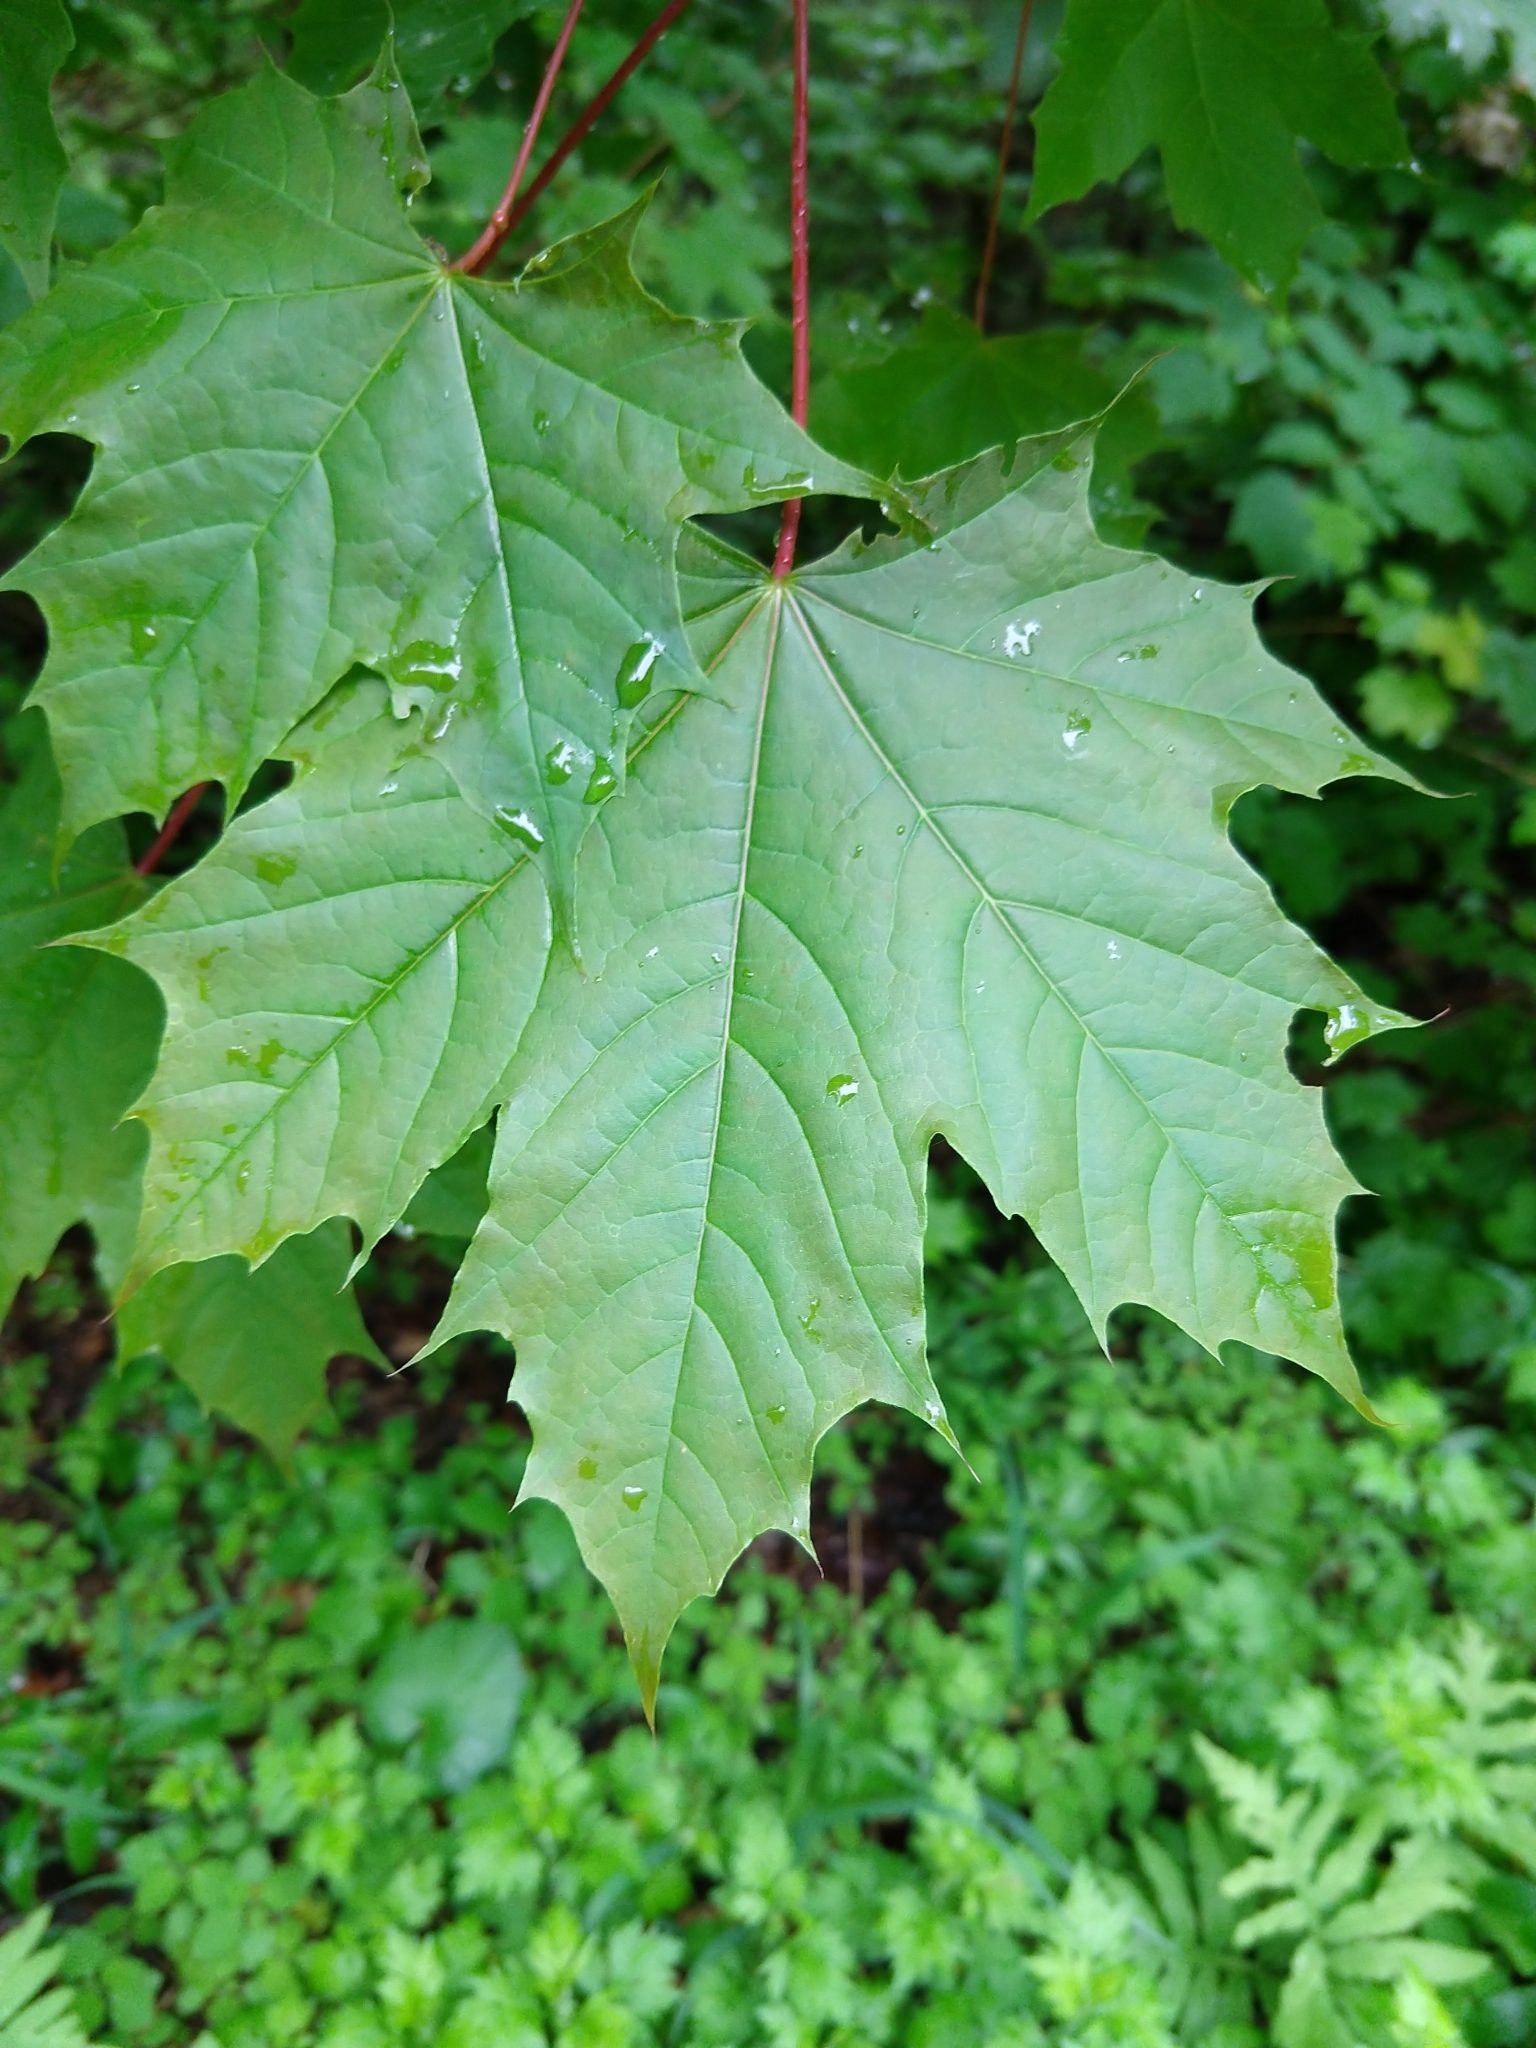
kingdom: Plantae
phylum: Tracheophyta
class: Magnoliopsida
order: Sapindales
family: Sapindaceae
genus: Acer
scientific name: Acer platanoides
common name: Norway maple
